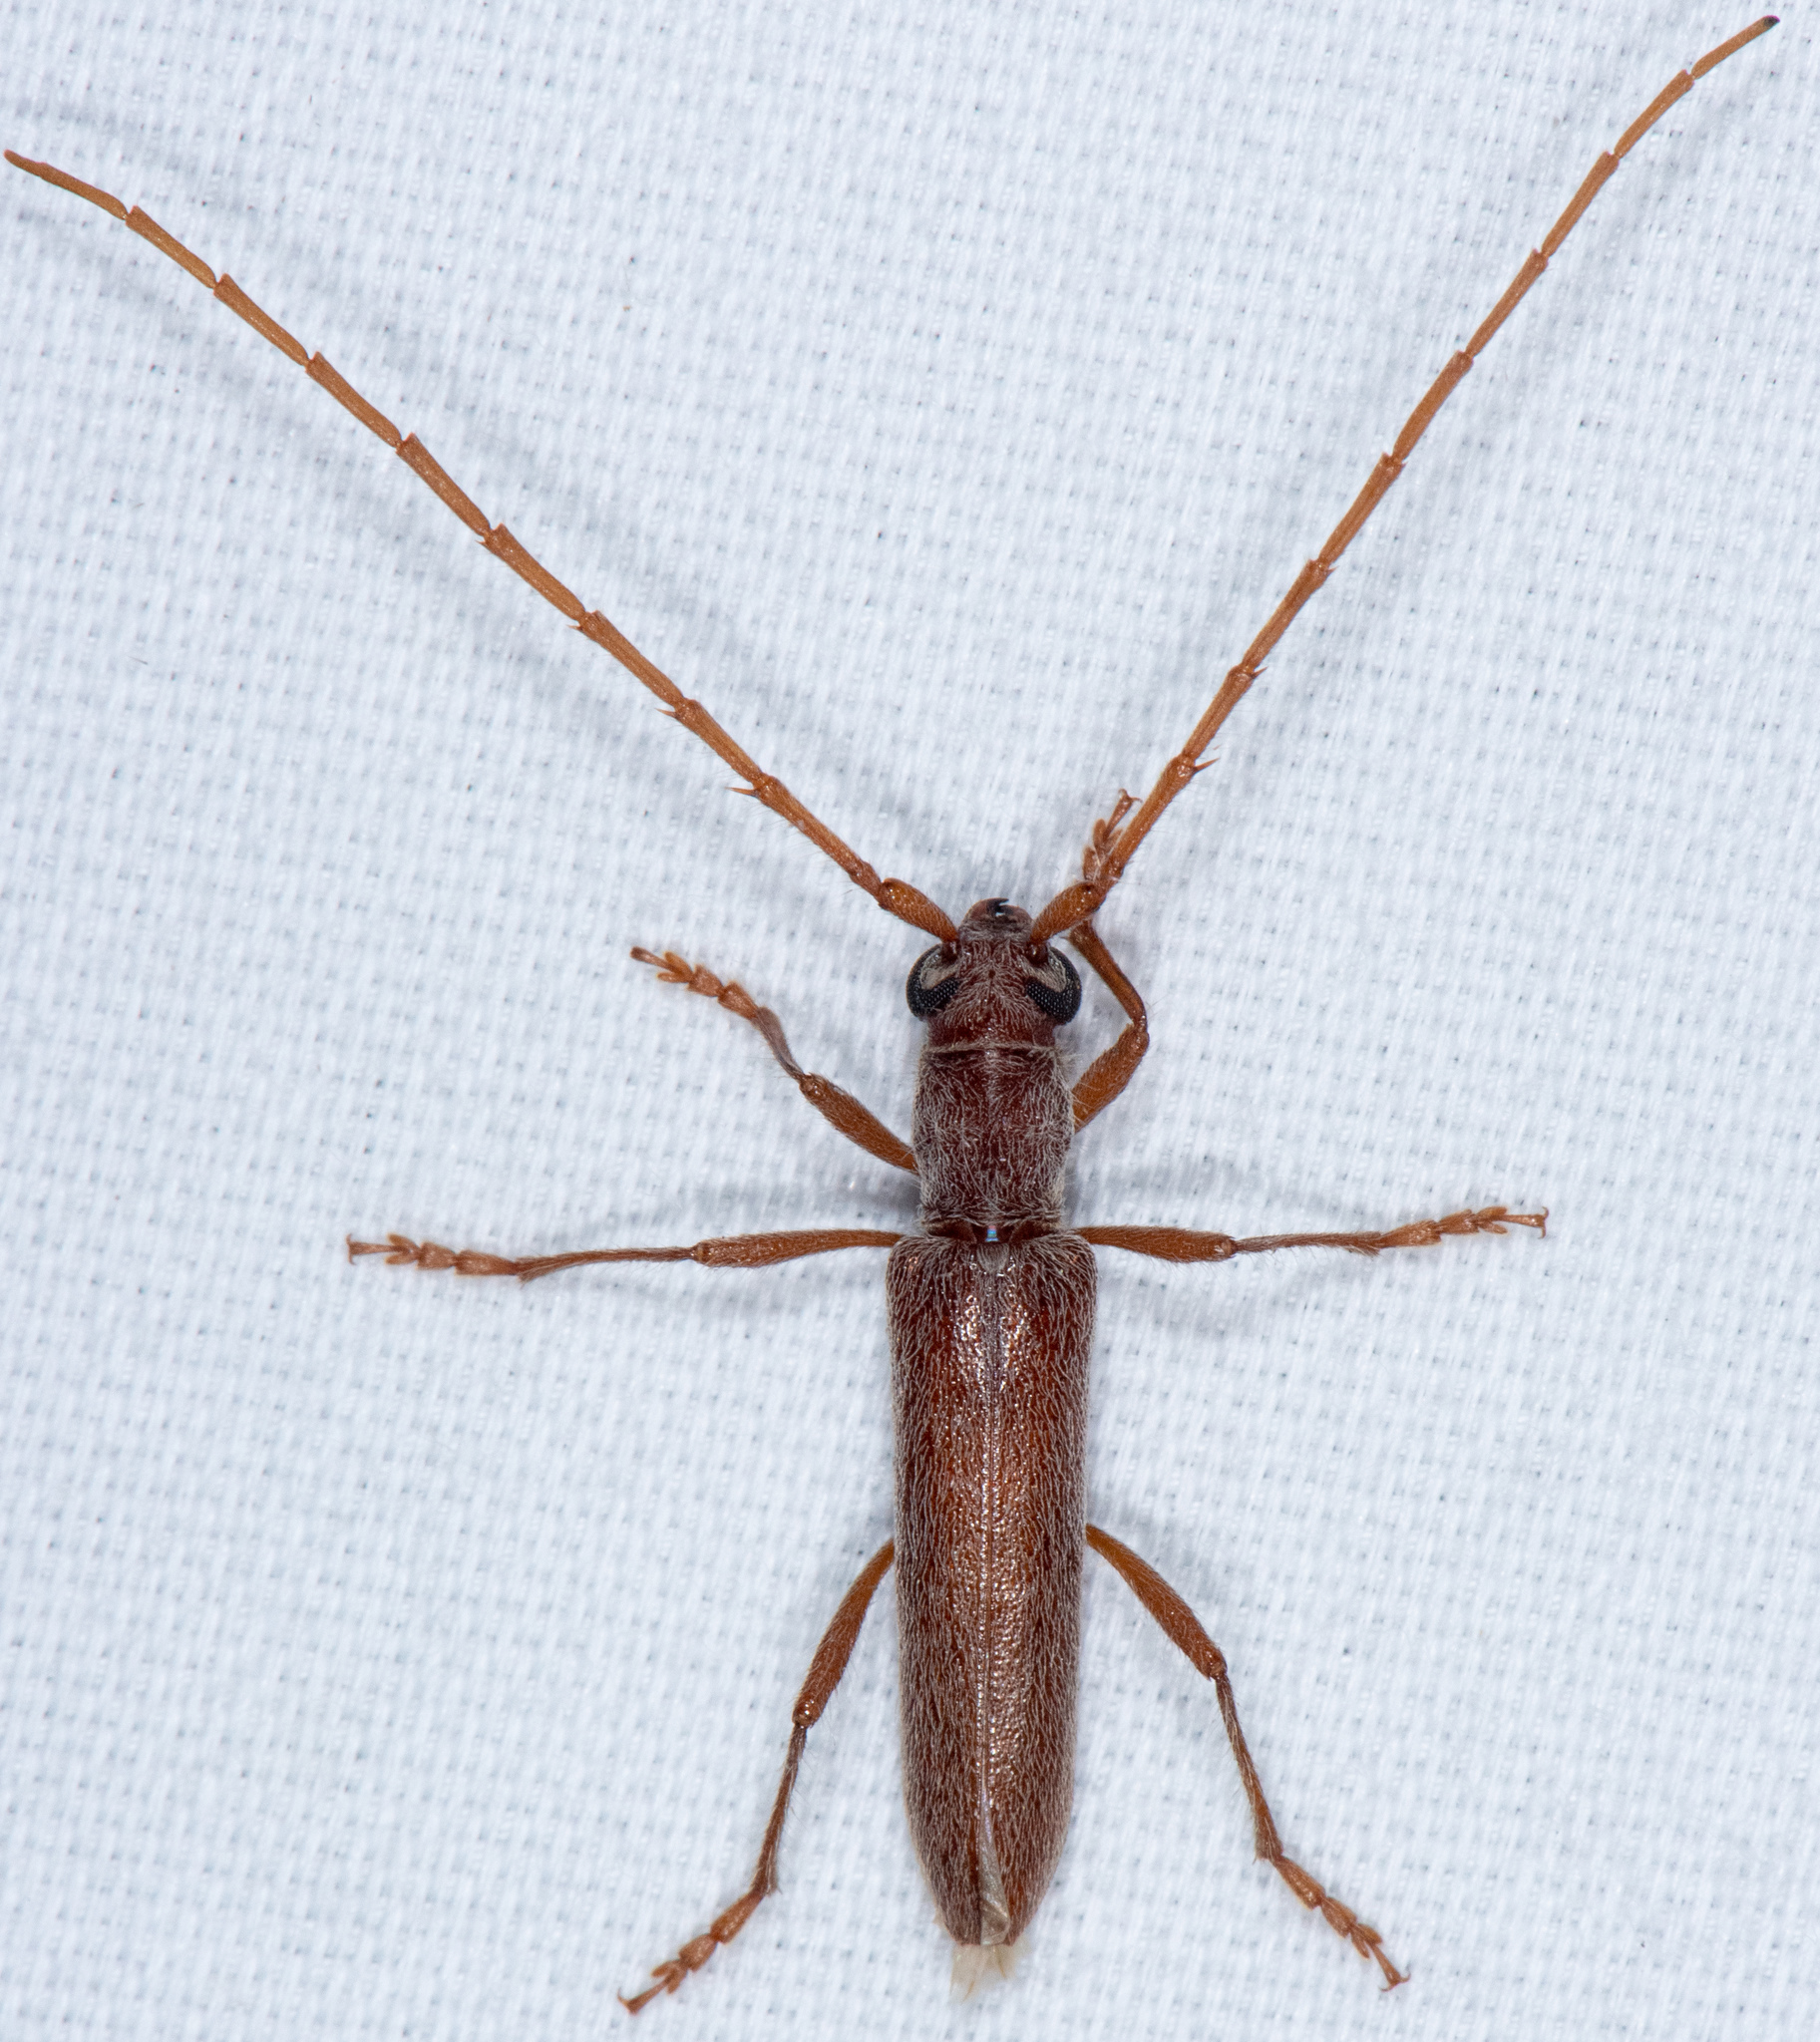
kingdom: Animalia
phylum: Arthropoda
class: Insecta
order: Coleoptera
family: Cerambycidae
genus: Aneflomorpha
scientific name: Aneflomorpha lineare
